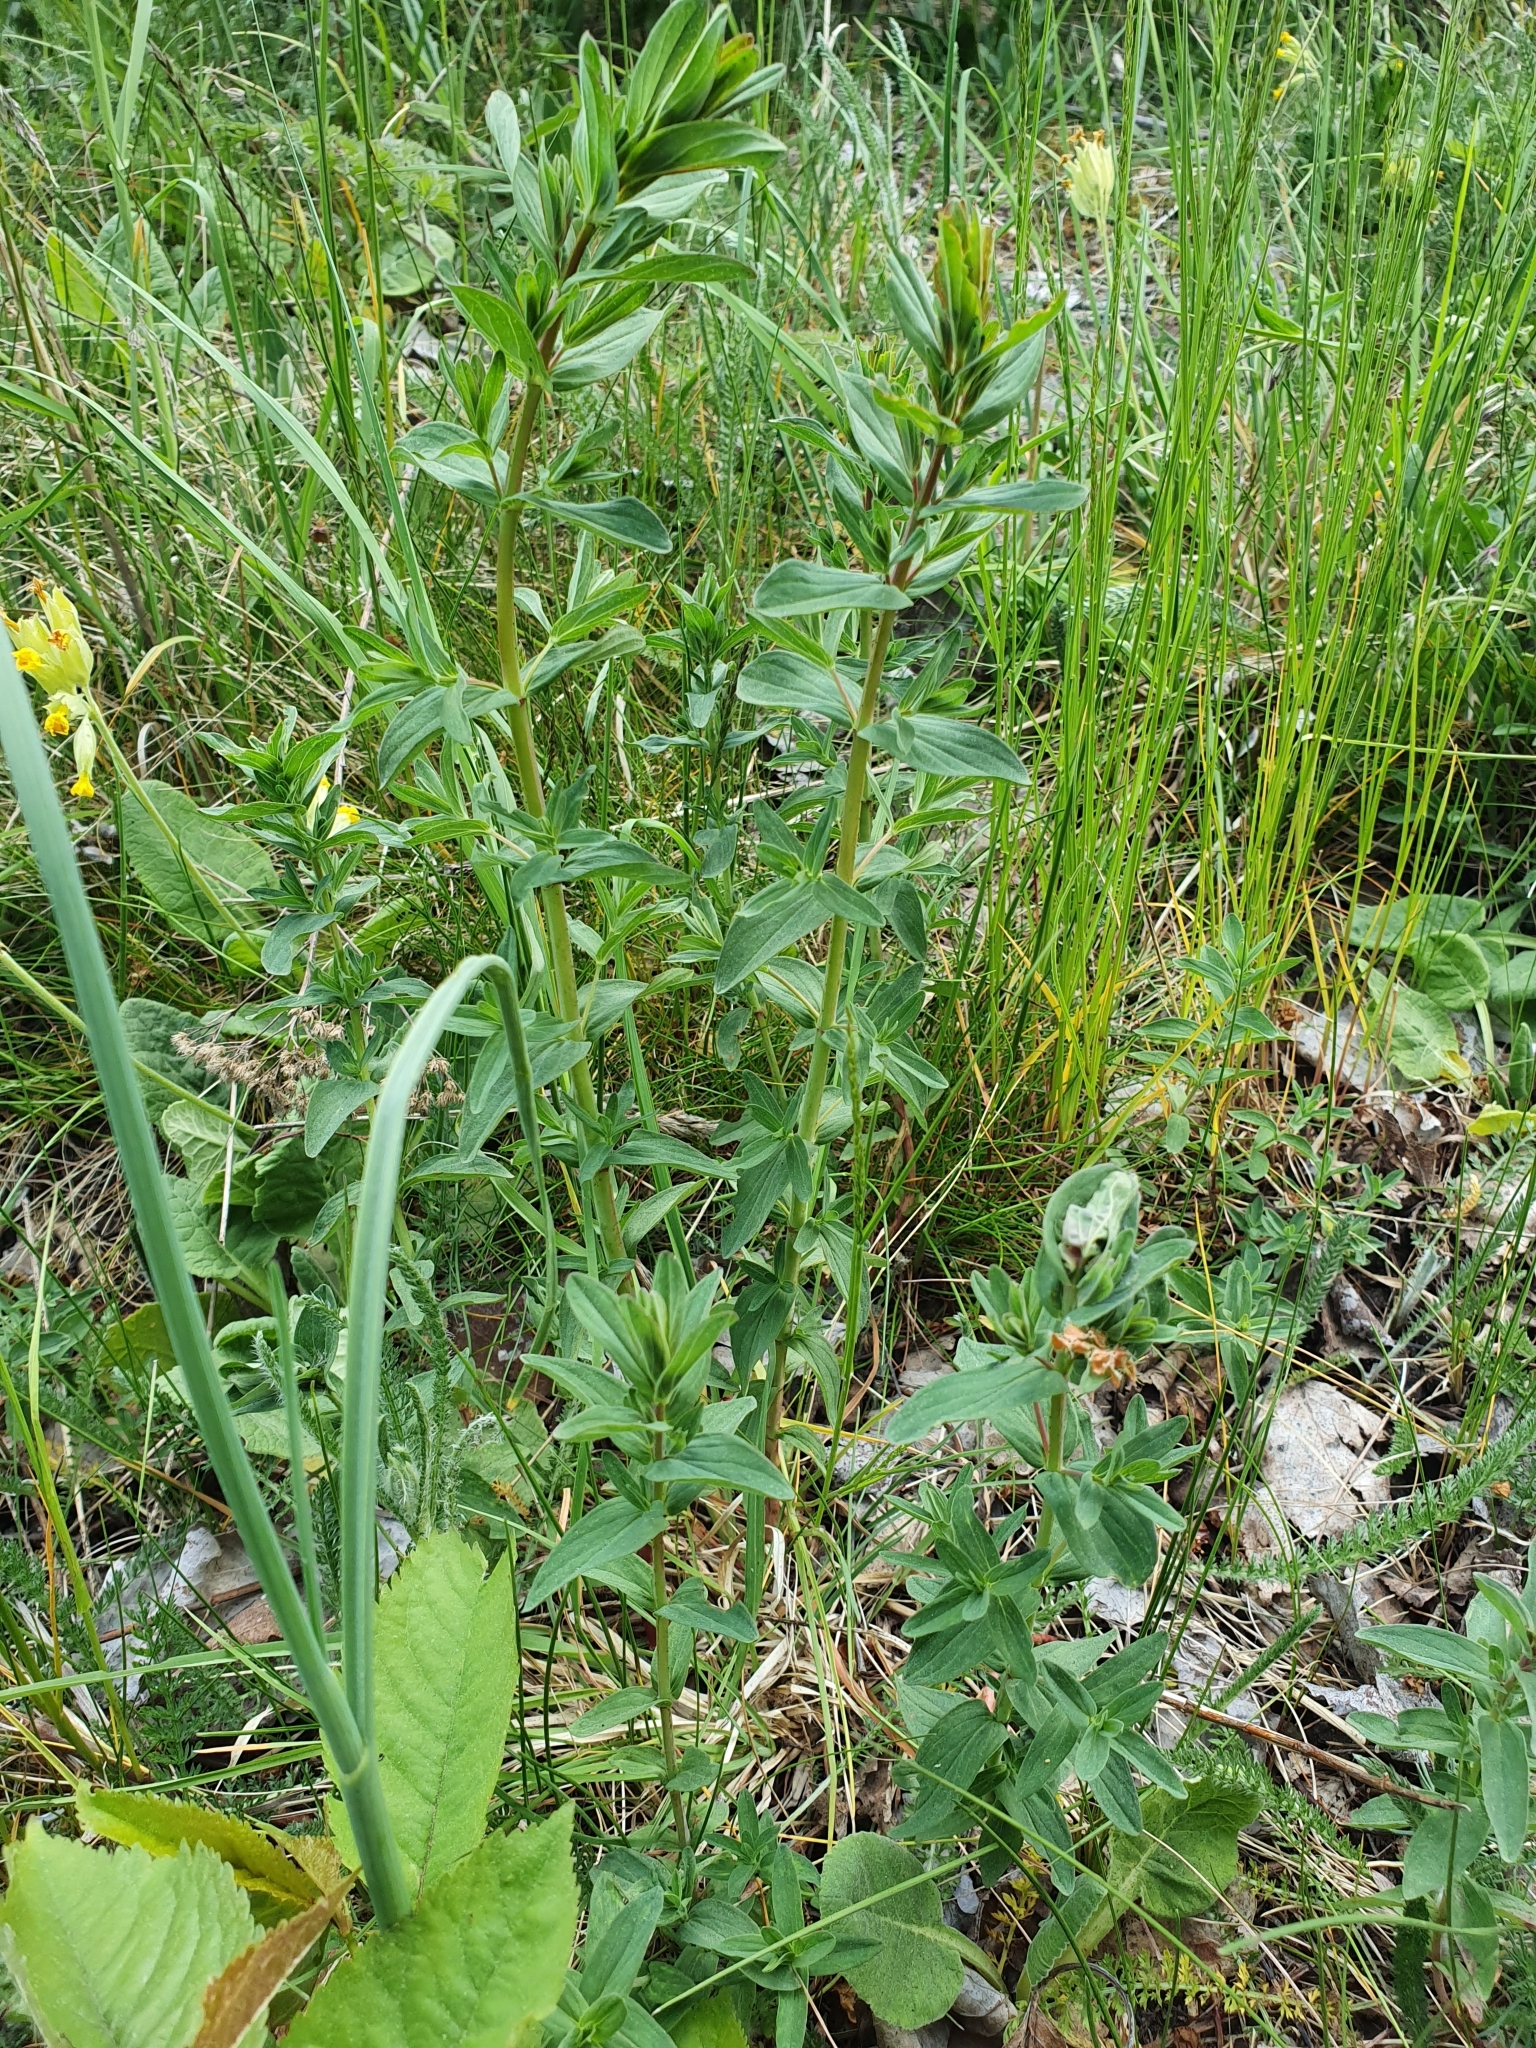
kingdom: Plantae
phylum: Tracheophyta
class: Magnoliopsida
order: Malpighiales
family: Hypericaceae
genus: Hypericum
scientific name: Hypericum maculatum
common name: Imperforate st. john's-wort
